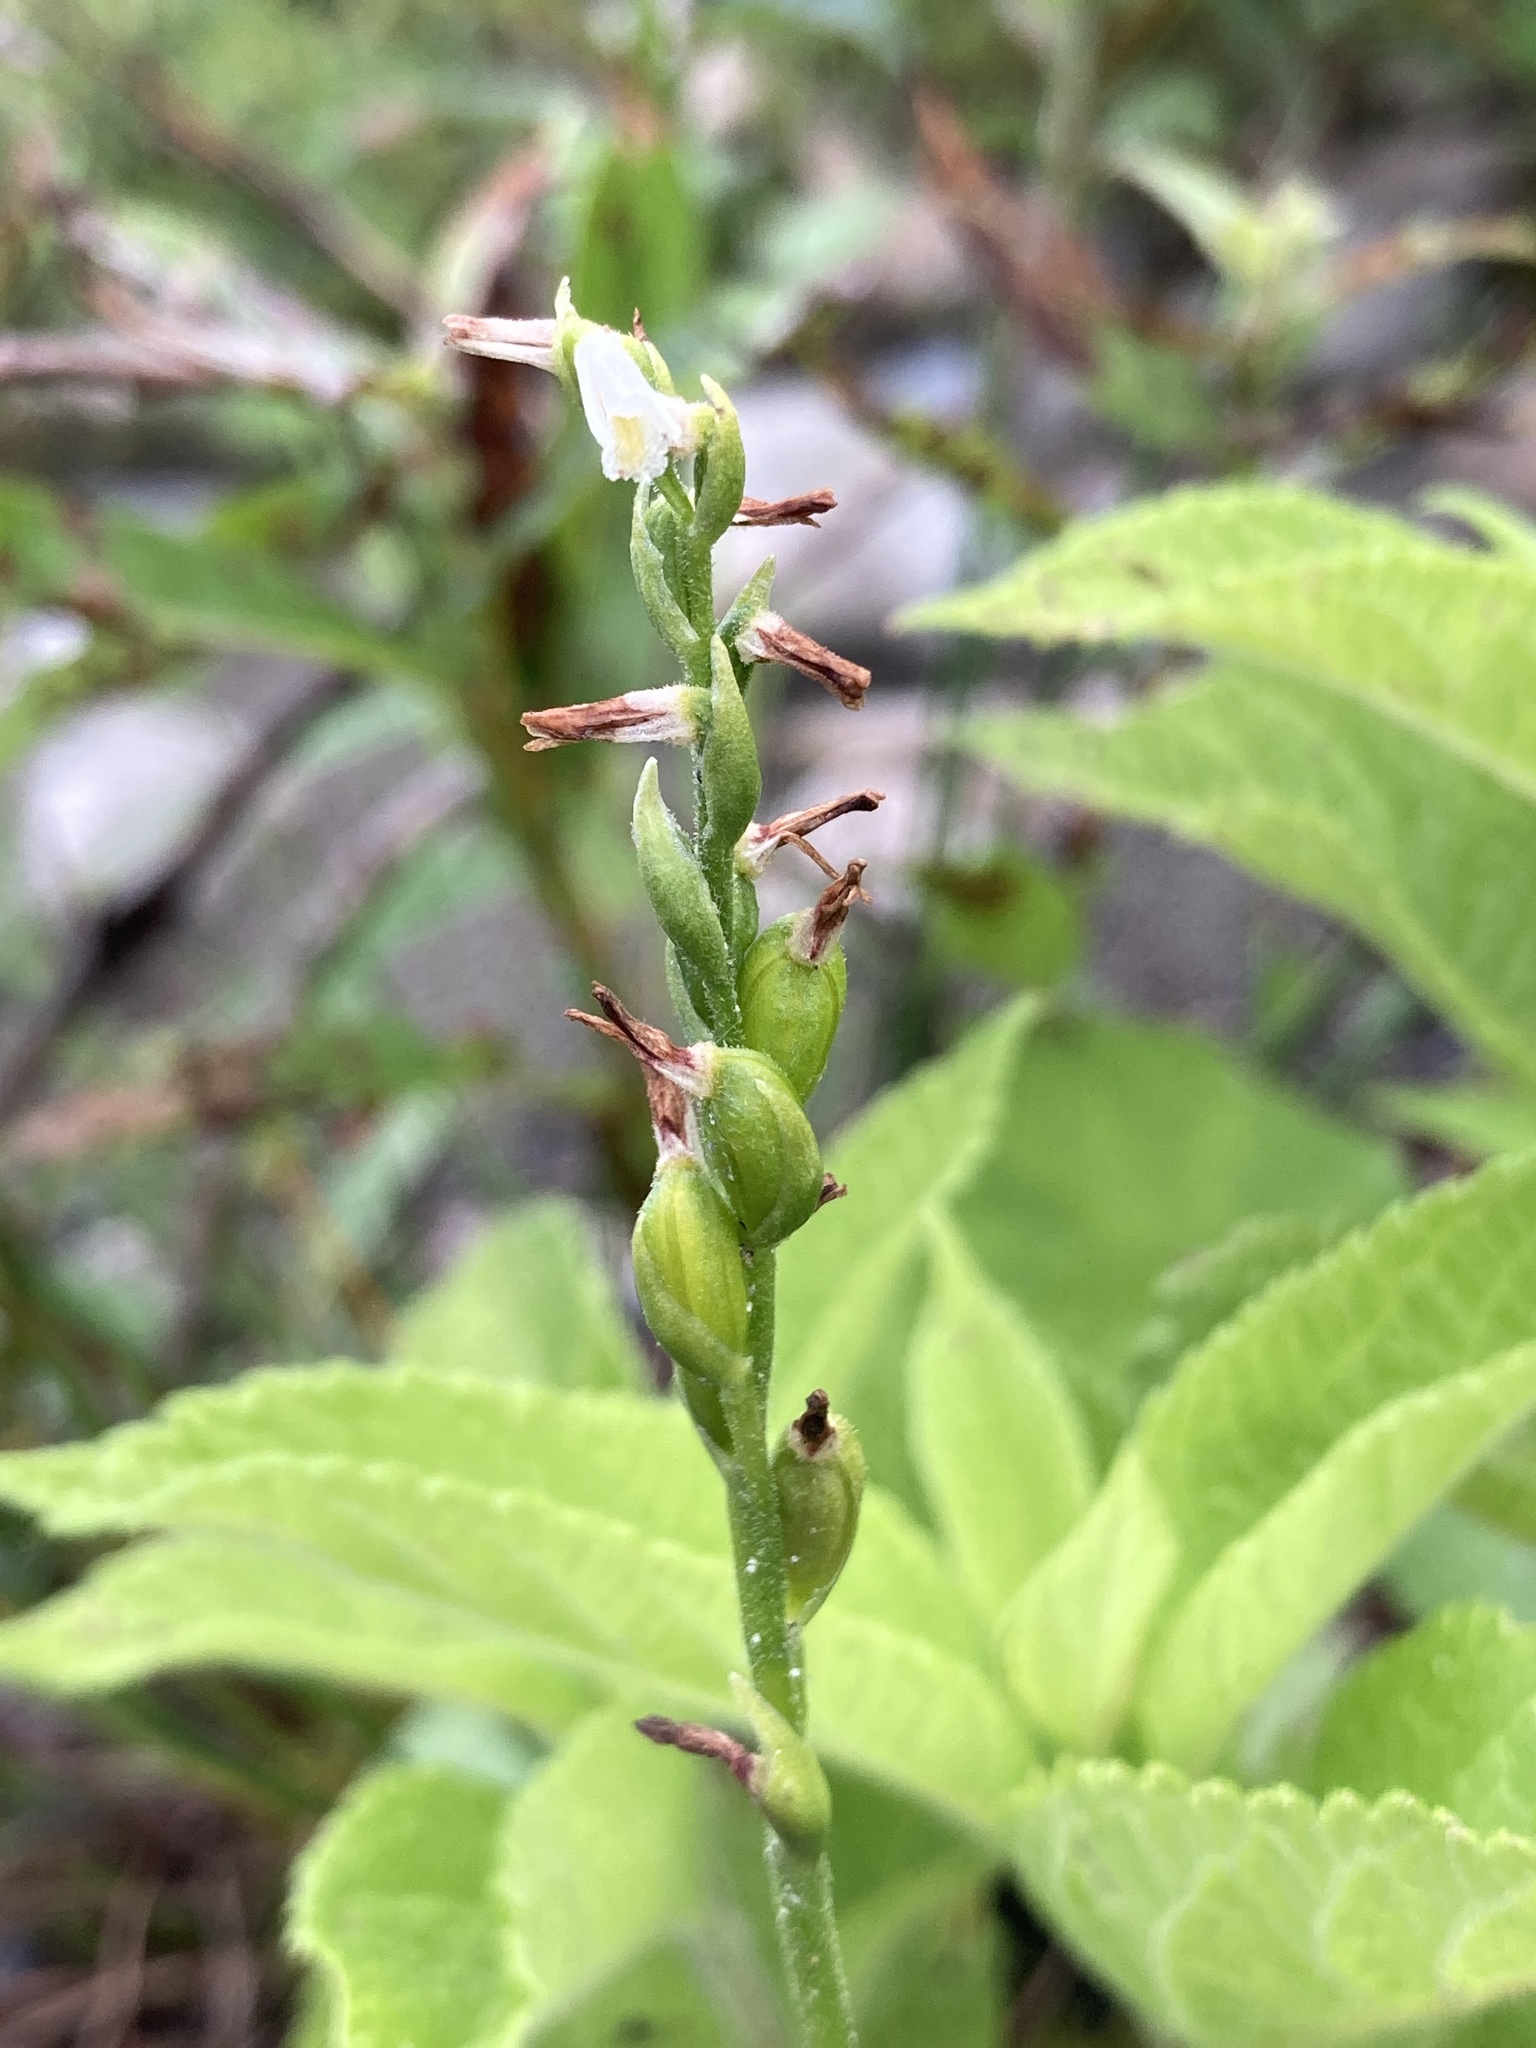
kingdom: Plantae
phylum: Tracheophyta
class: Liliopsida
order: Asparagales
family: Orchidaceae
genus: Spiranthes
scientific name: Spiranthes lucida
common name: Broad-leaved ladies'-tresses
